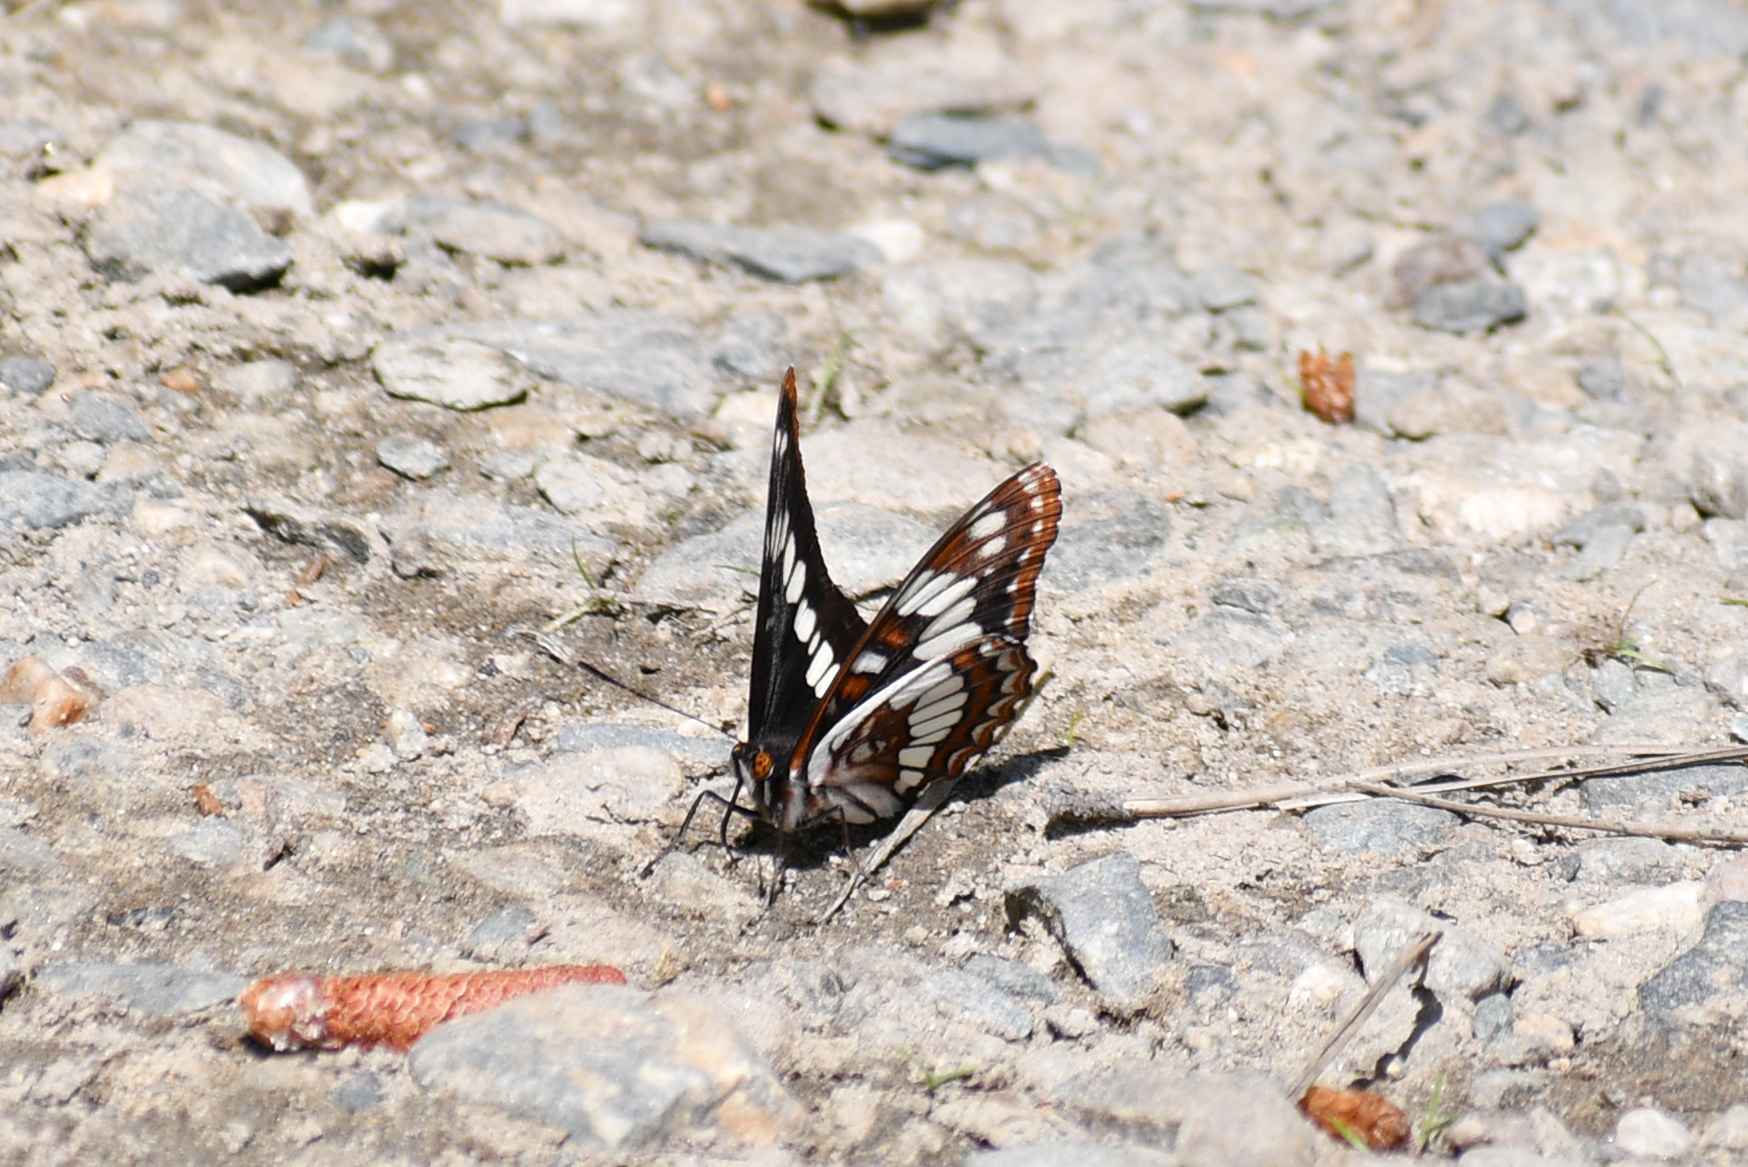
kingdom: Animalia
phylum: Arthropoda
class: Insecta
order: Lepidoptera
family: Nymphalidae
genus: Limenitis
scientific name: Limenitis lorquini
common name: Lorquin's admiral
